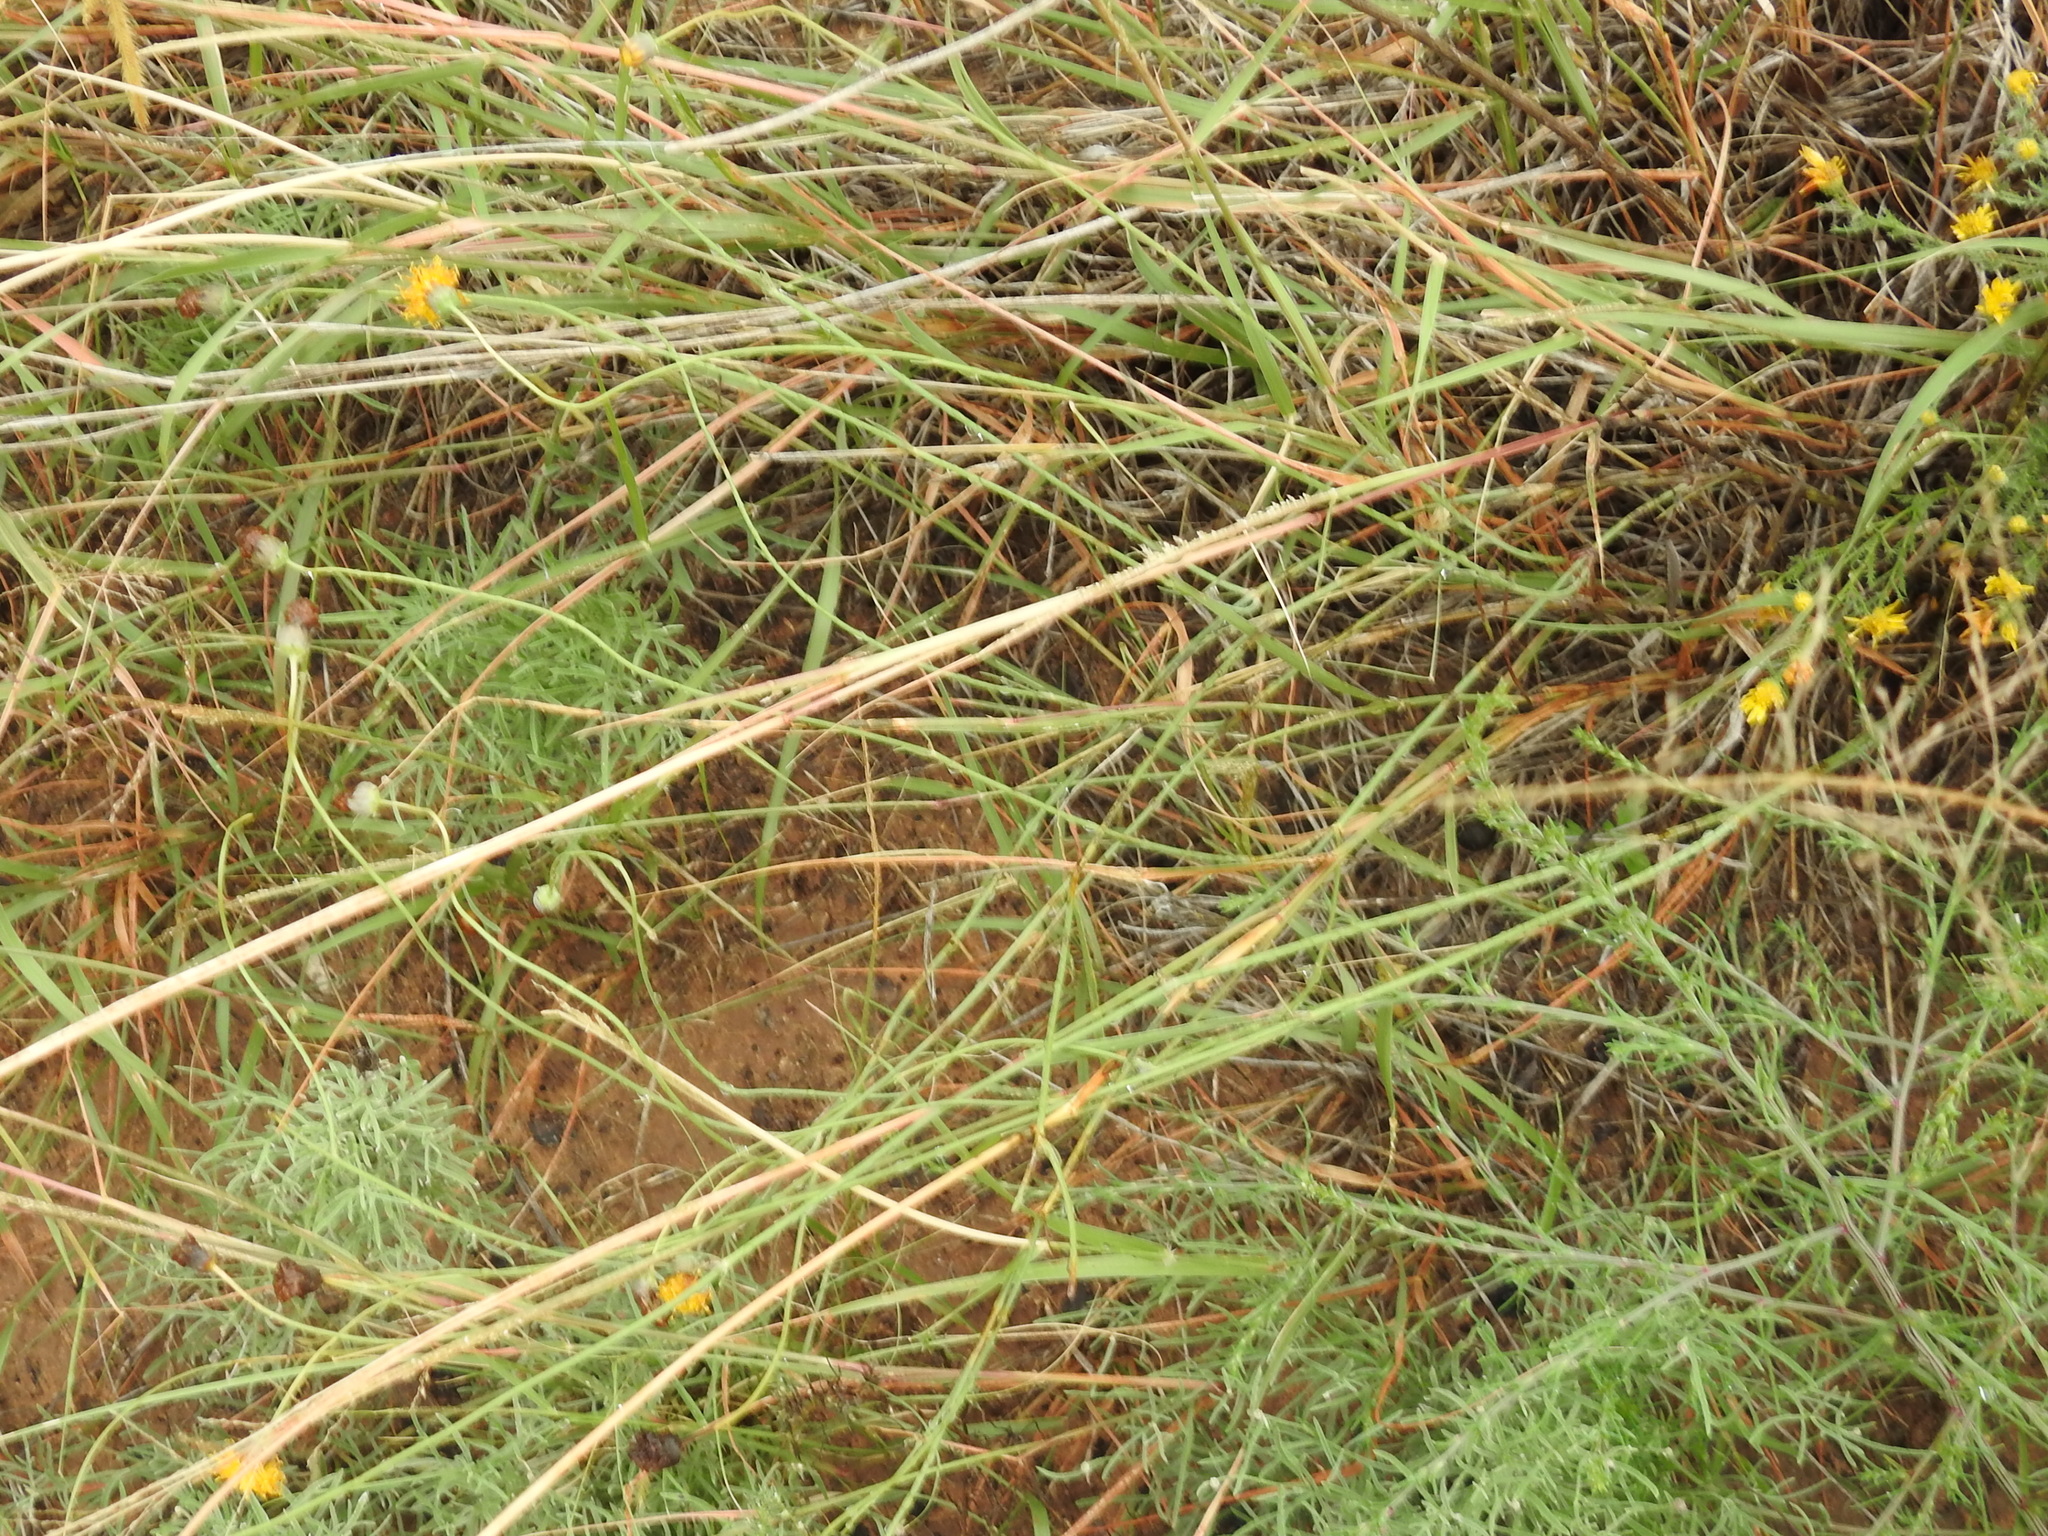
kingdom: Plantae
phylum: Tracheophyta
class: Magnoliopsida
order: Asterales
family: Asteraceae
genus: Thelesperma
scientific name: Thelesperma megapotamicum
